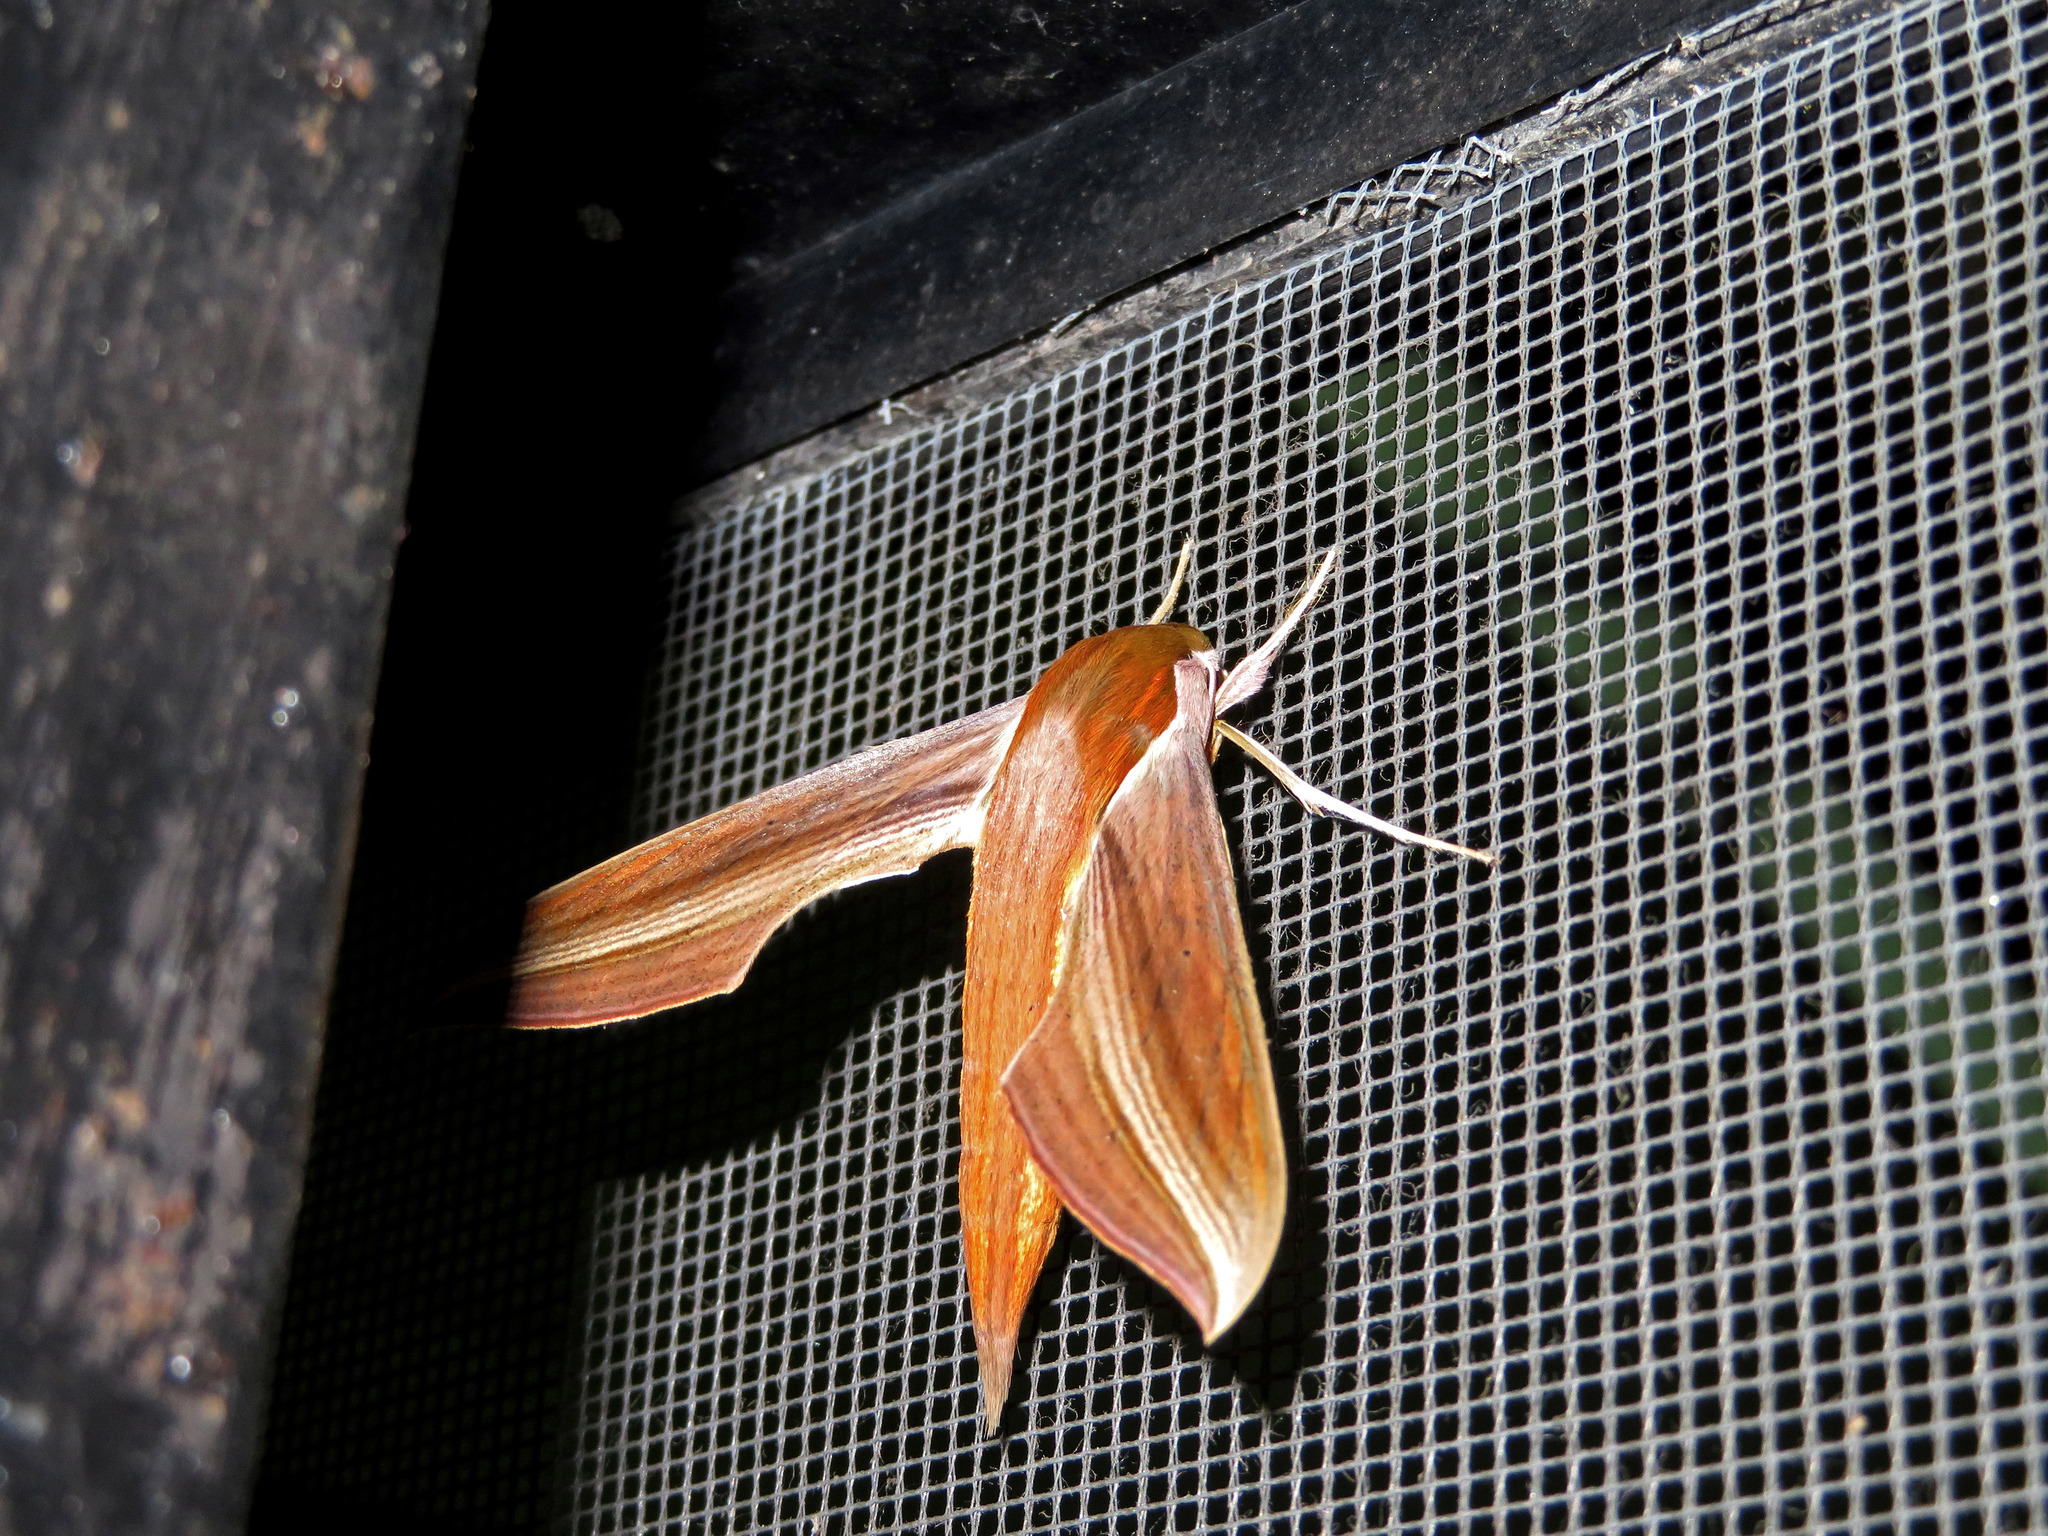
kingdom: Animalia
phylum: Arthropoda
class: Insecta
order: Lepidoptera
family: Sphingidae
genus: Xylophanes
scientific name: Xylophanes tersa
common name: Tersa sphinx
